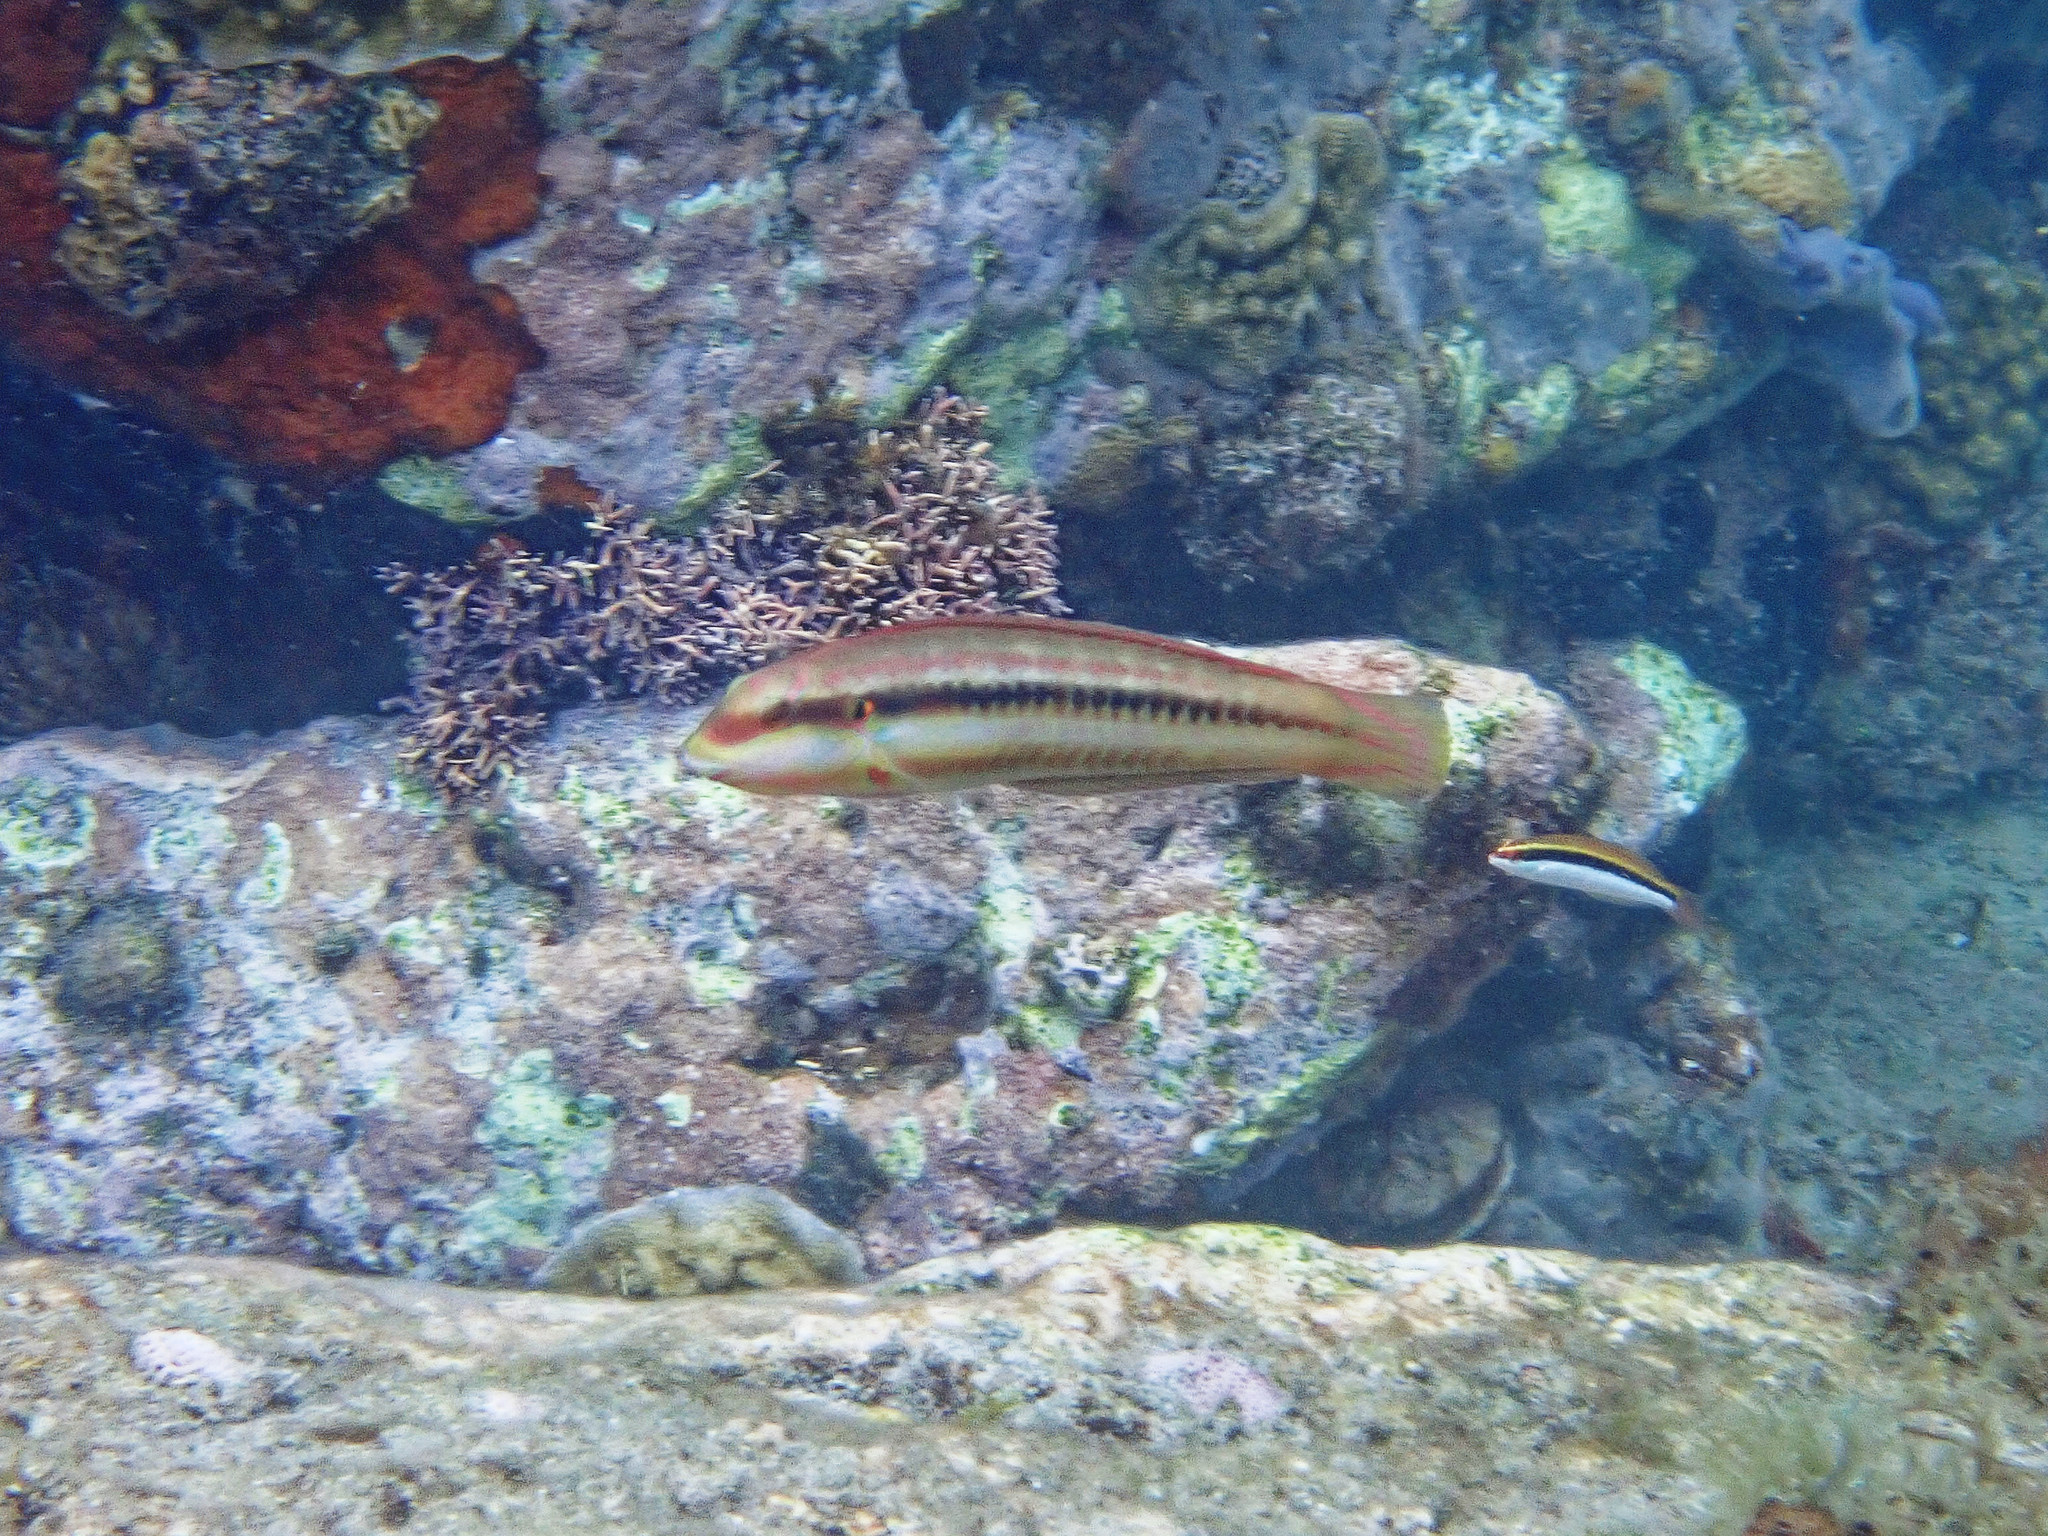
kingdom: Animalia
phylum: Chordata
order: Perciformes
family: Labridae
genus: Halichoeres
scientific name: Halichoeres bivittatus
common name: Slippery dick
